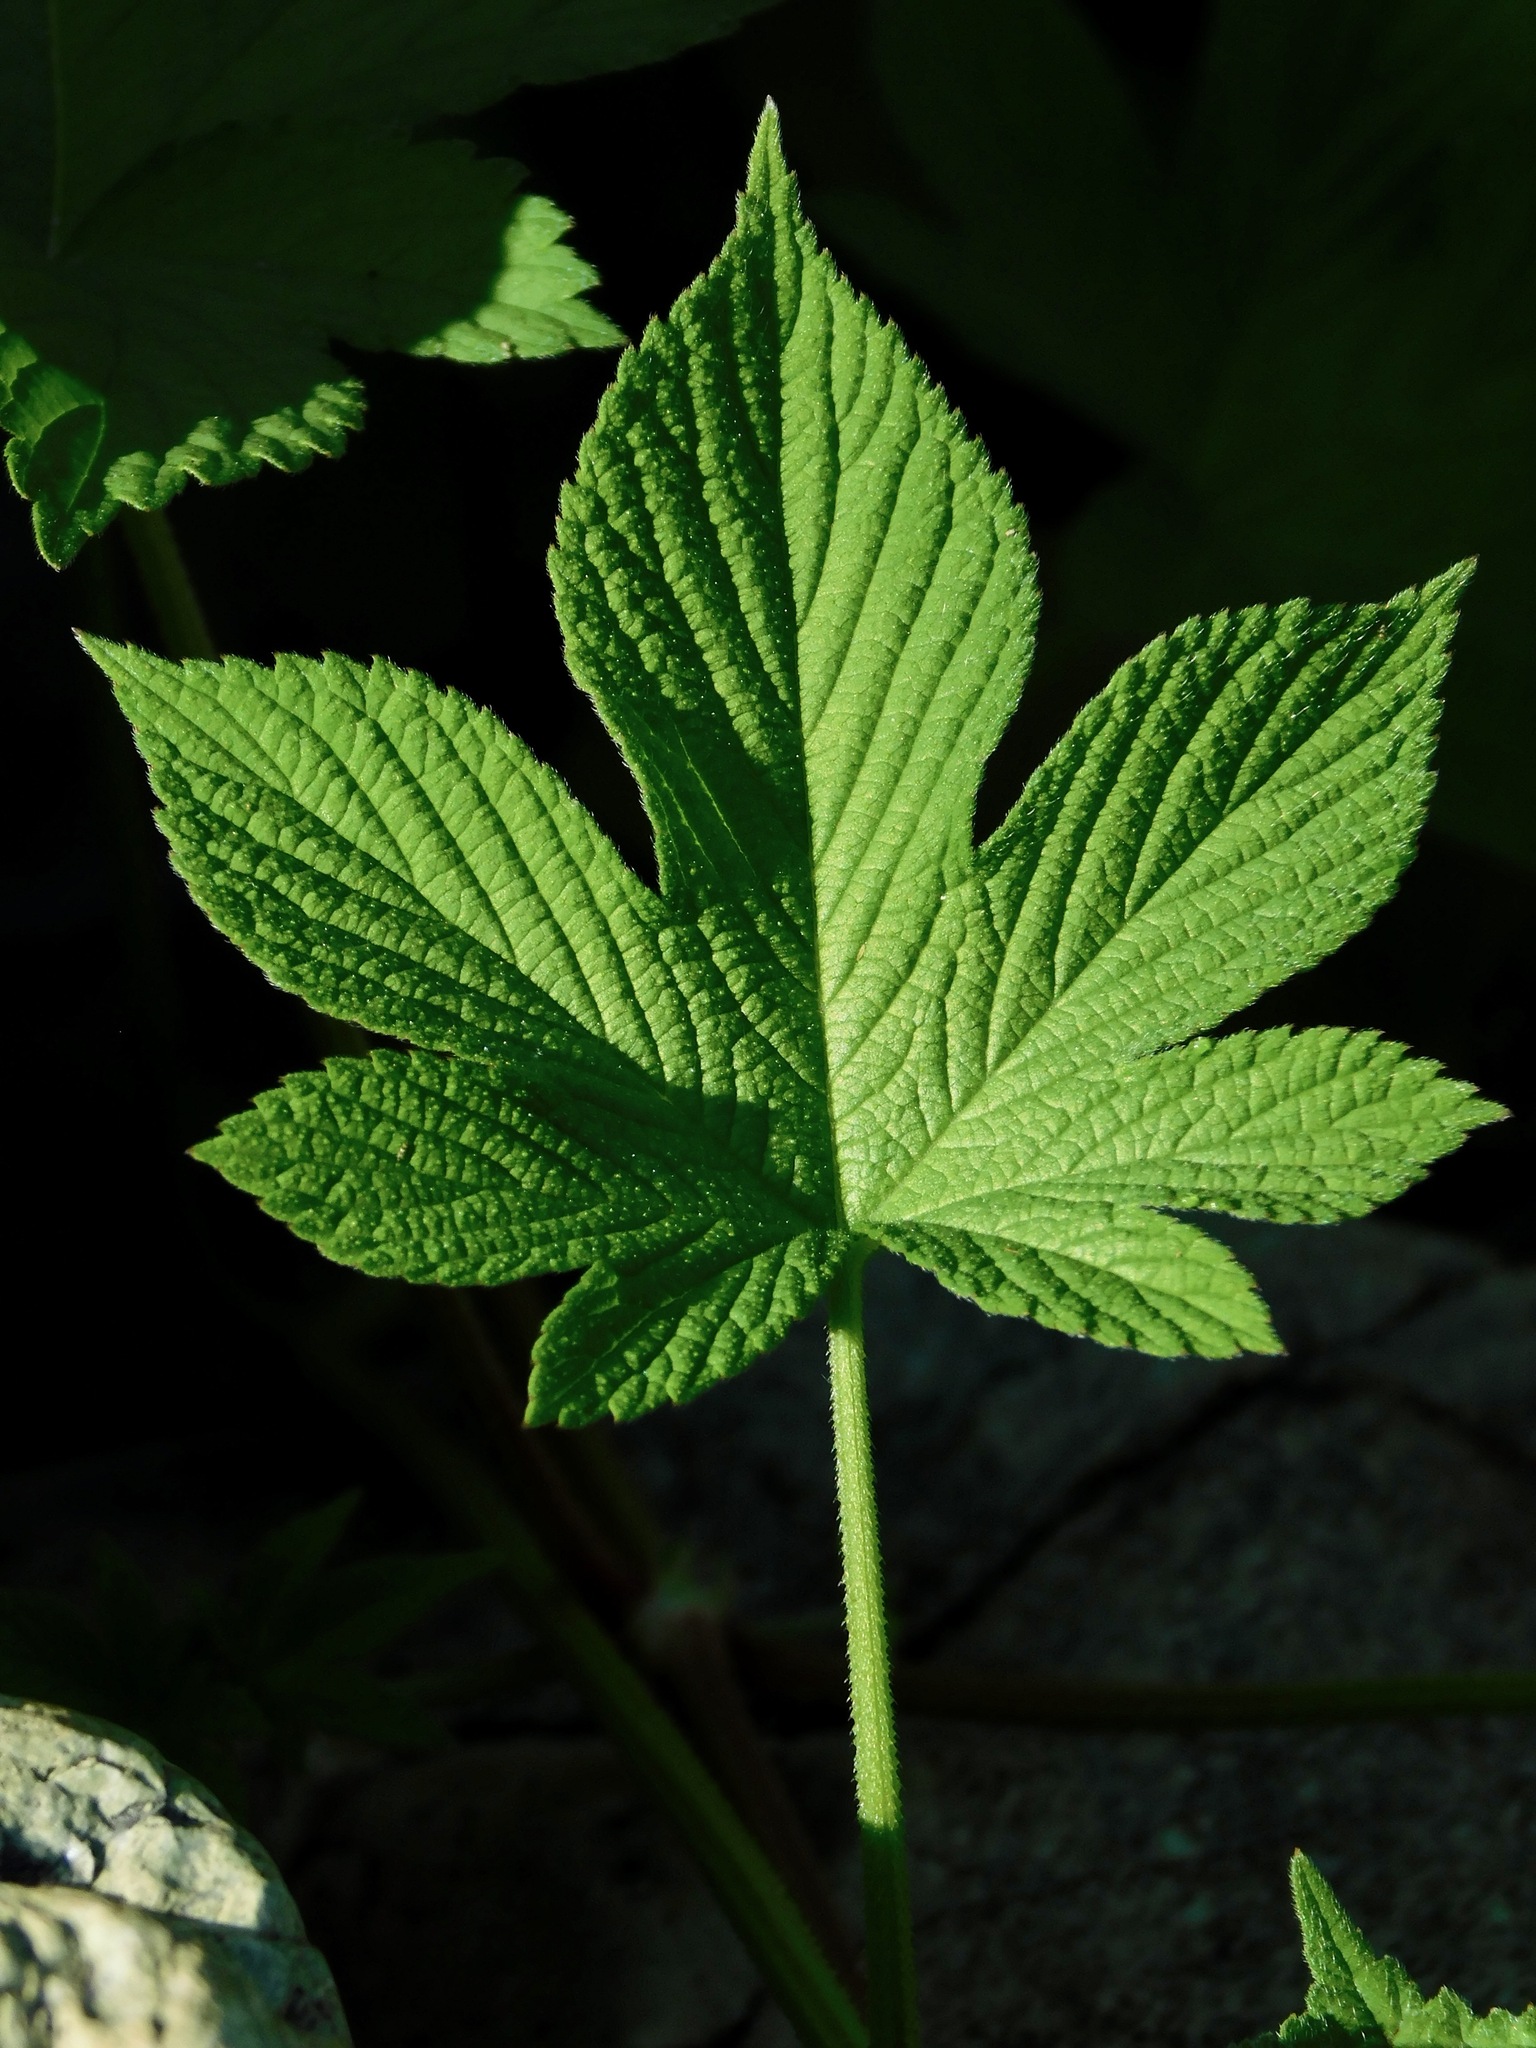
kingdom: Plantae
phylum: Tracheophyta
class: Magnoliopsida
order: Rosales
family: Cannabaceae
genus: Humulus
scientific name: Humulus scandens
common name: Japanese hop
